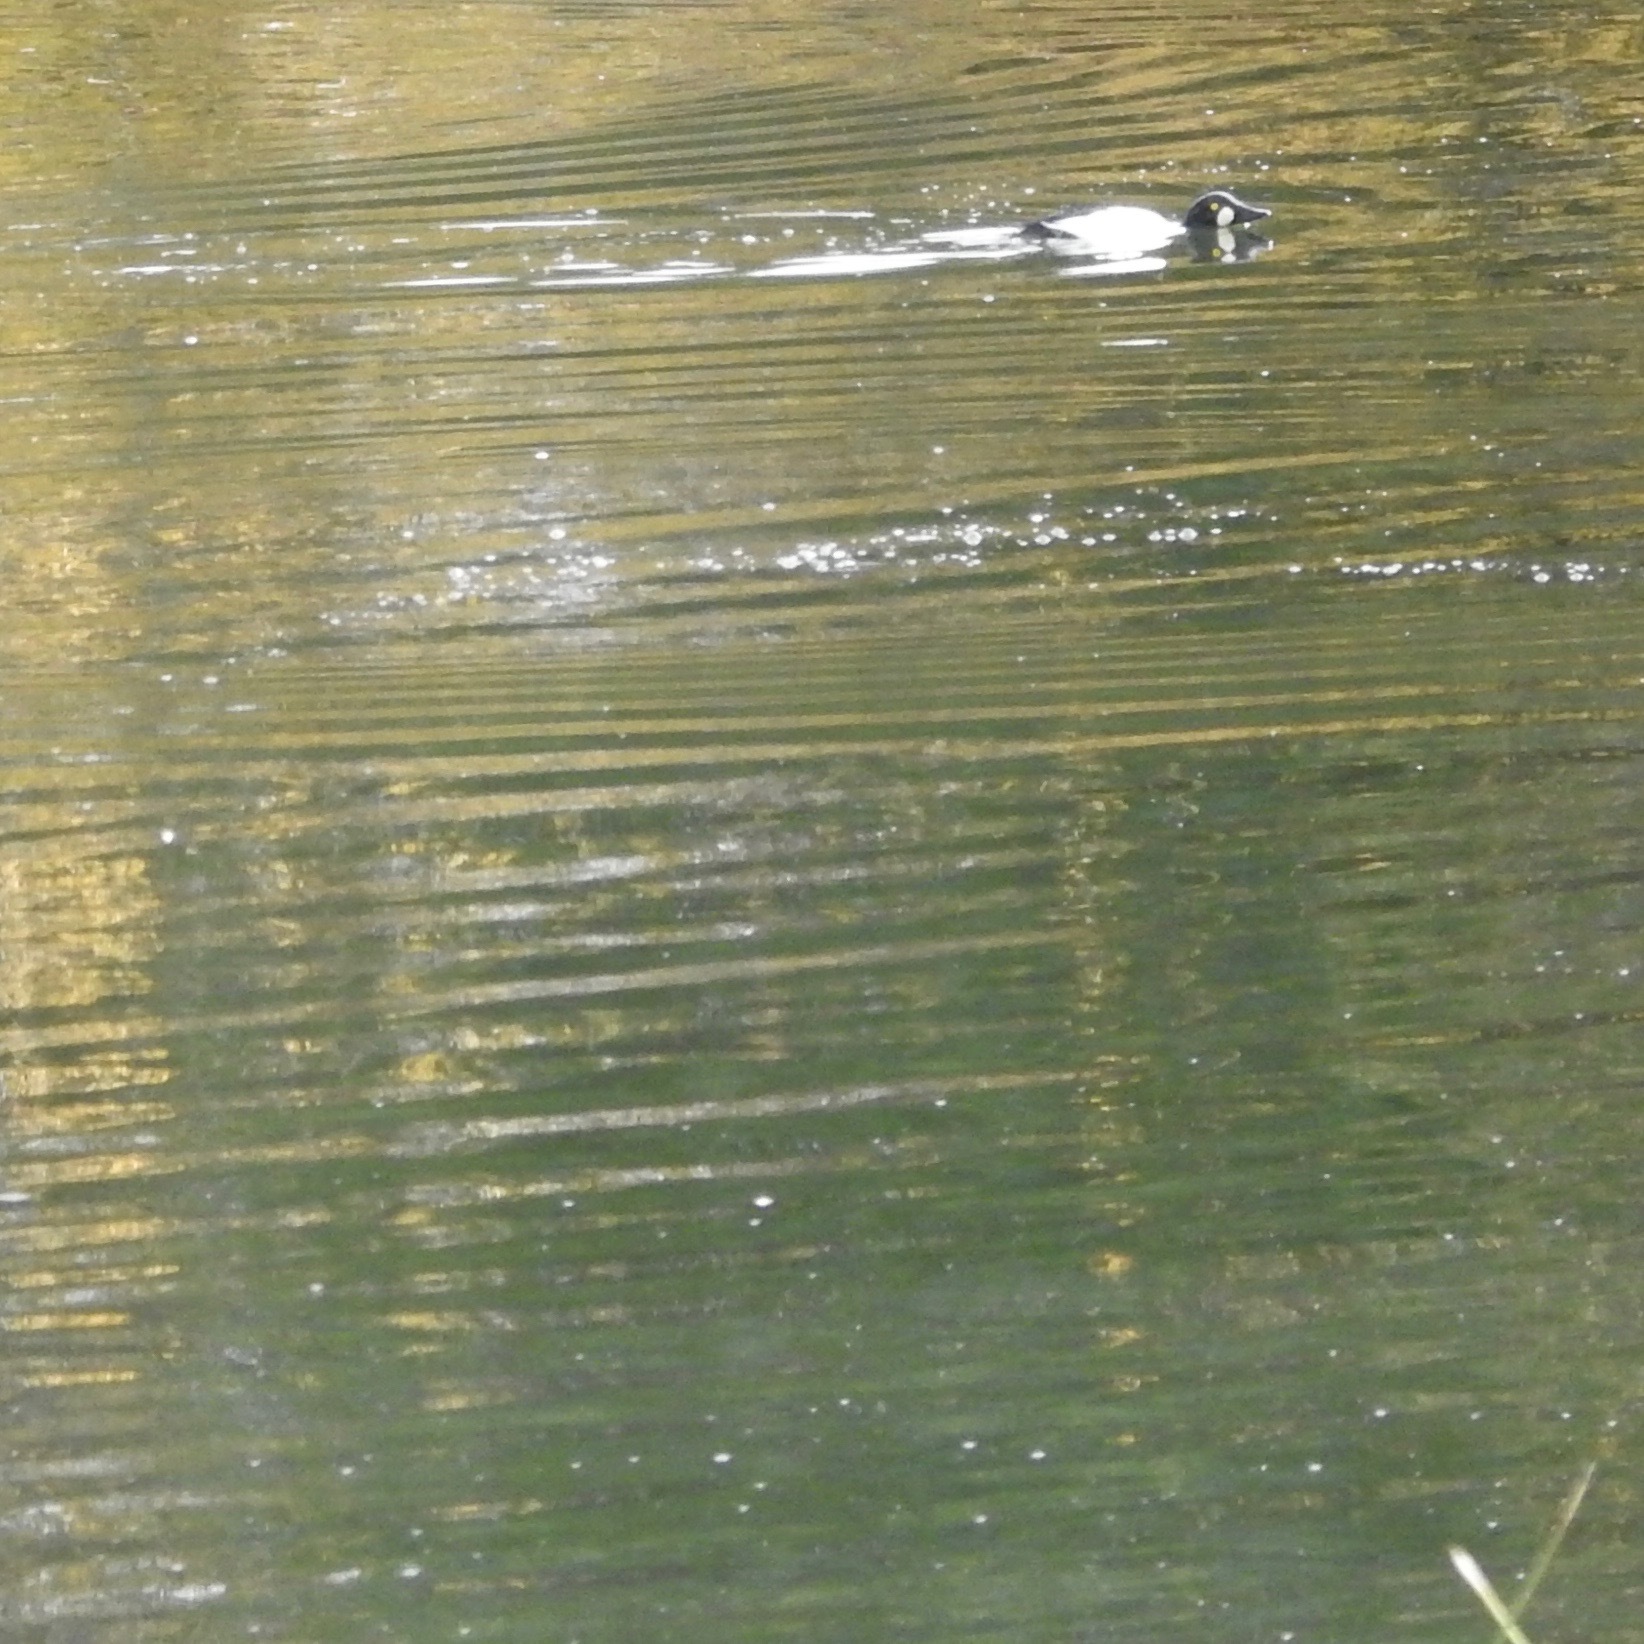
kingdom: Animalia
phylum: Chordata
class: Aves
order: Anseriformes
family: Anatidae
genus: Bucephala
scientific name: Bucephala clangula
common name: Common goldeneye
